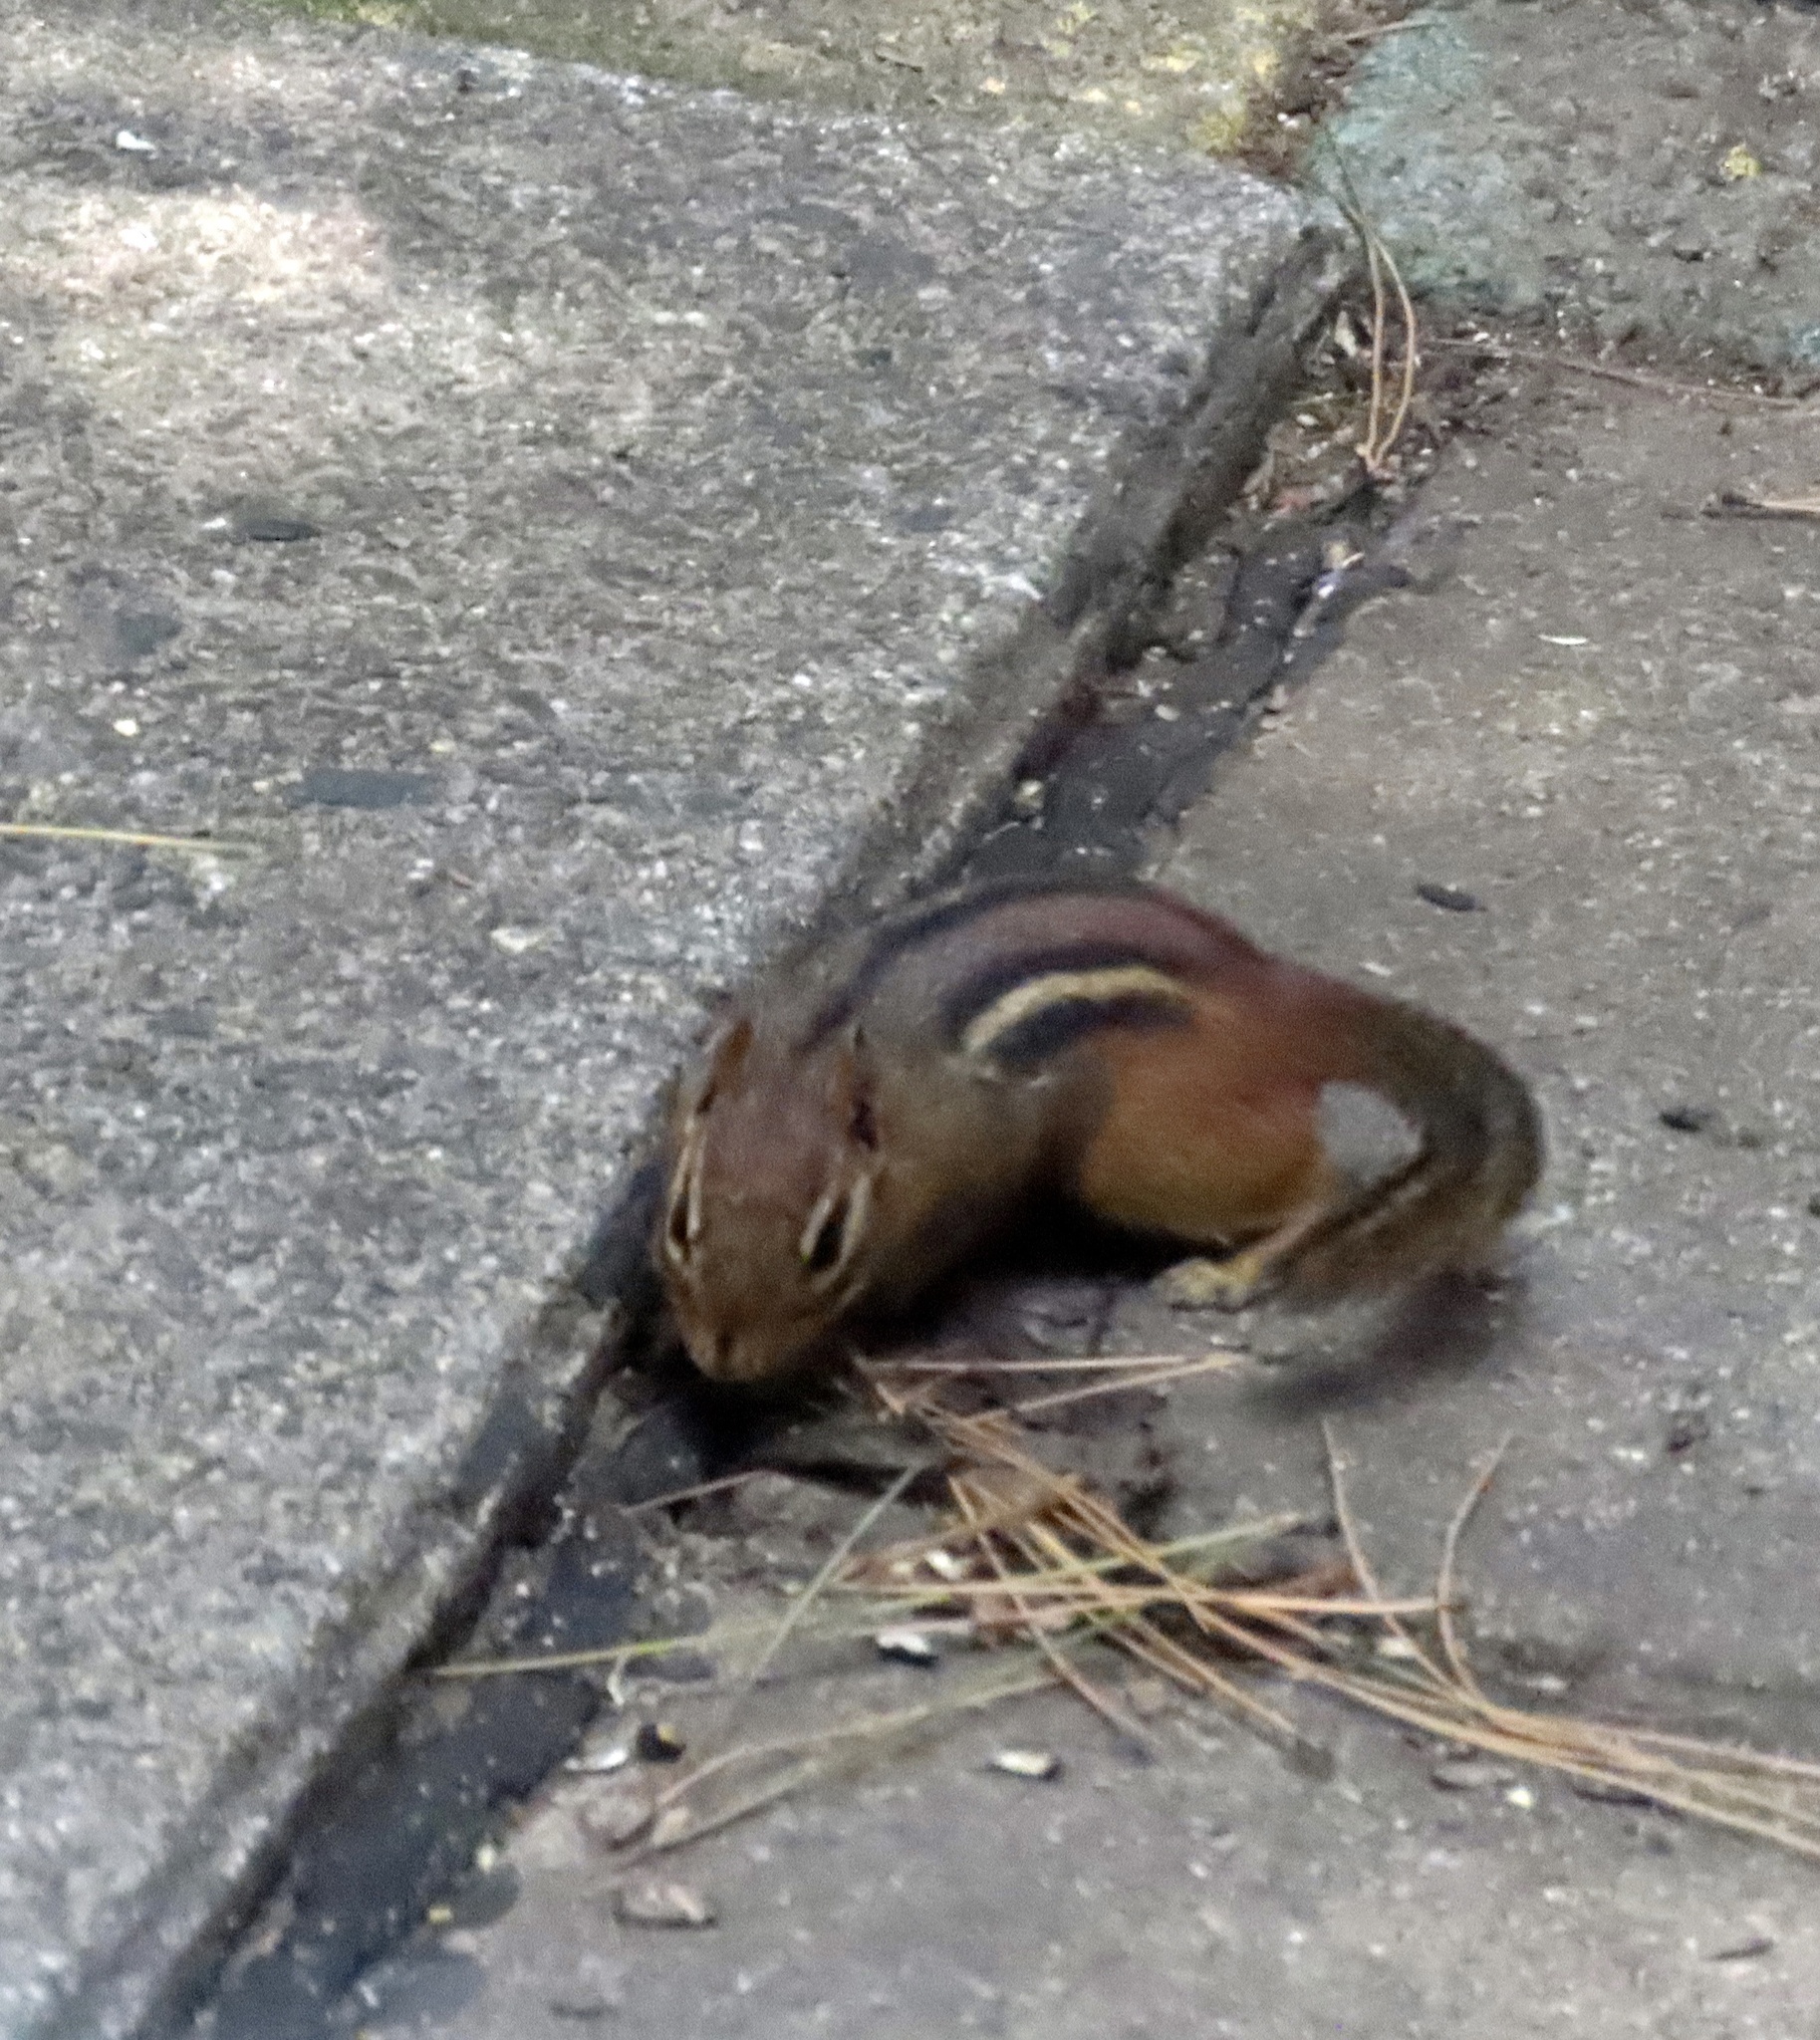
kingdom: Animalia
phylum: Chordata
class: Mammalia
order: Rodentia
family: Sciuridae
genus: Tamias
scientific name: Tamias striatus
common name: Eastern chipmunk
